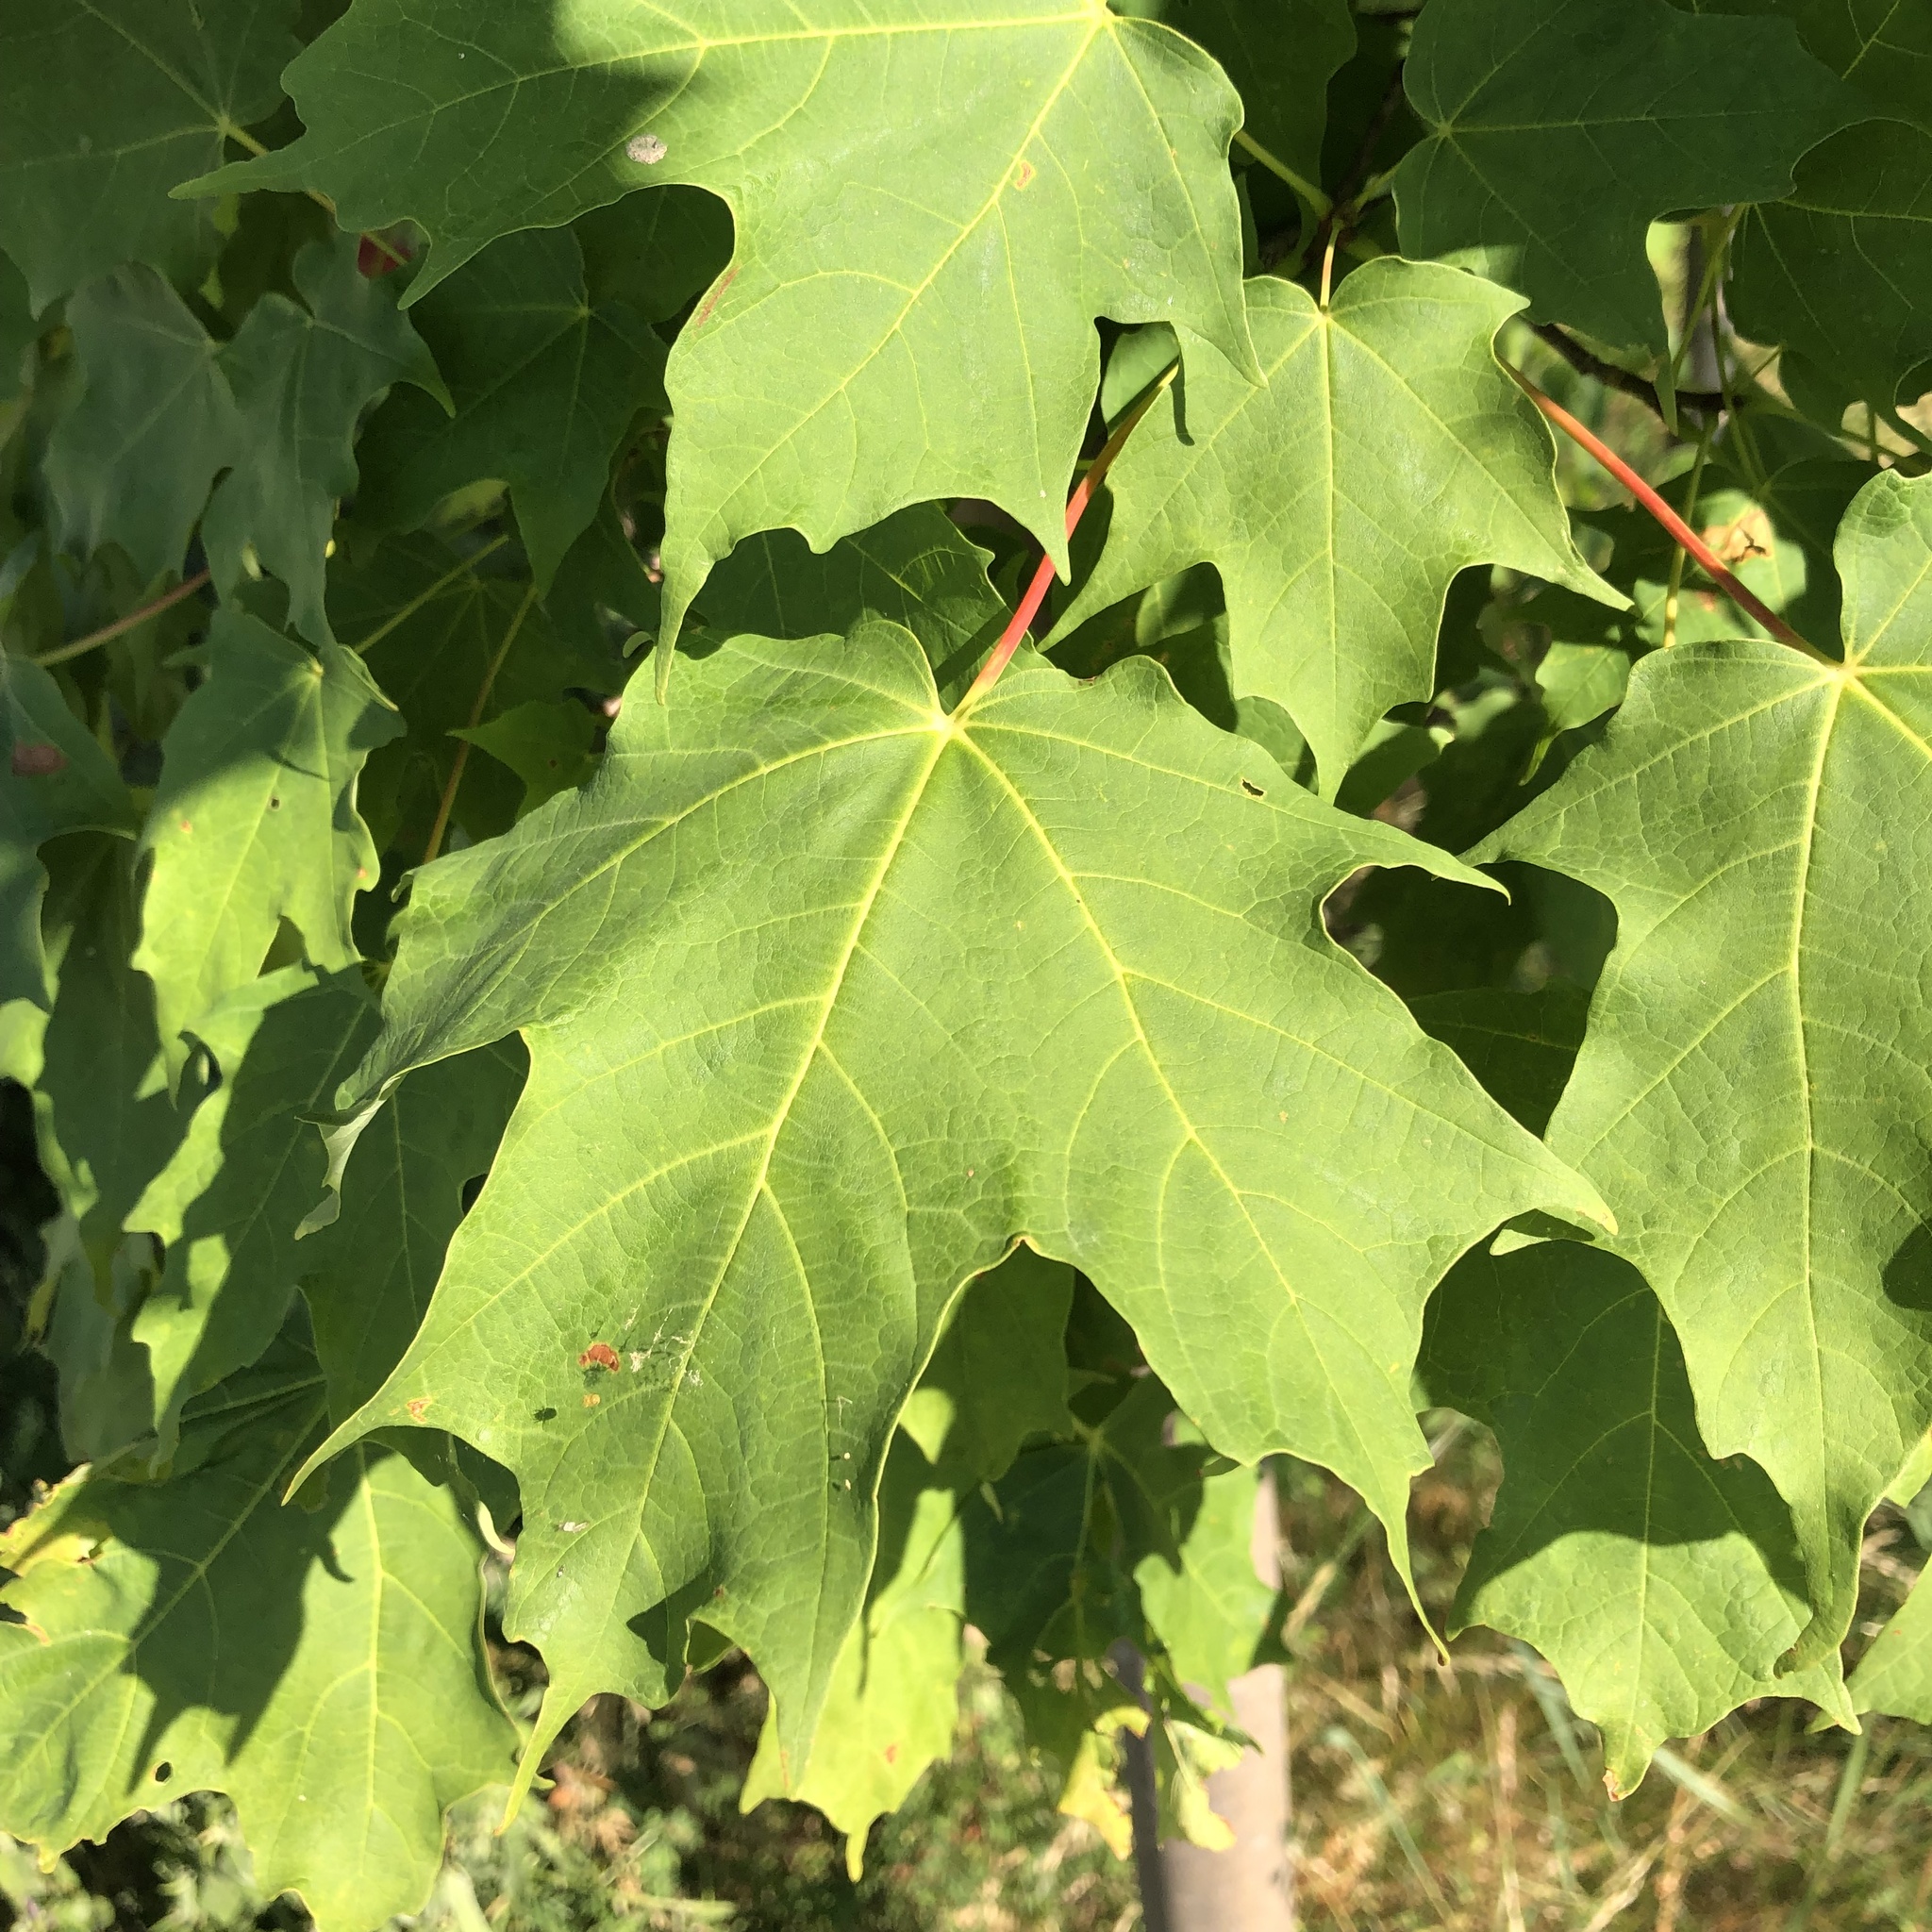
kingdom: Plantae
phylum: Tracheophyta
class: Magnoliopsida
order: Sapindales
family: Sapindaceae
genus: Acer
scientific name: Acer saccharum
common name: Sugar maple
